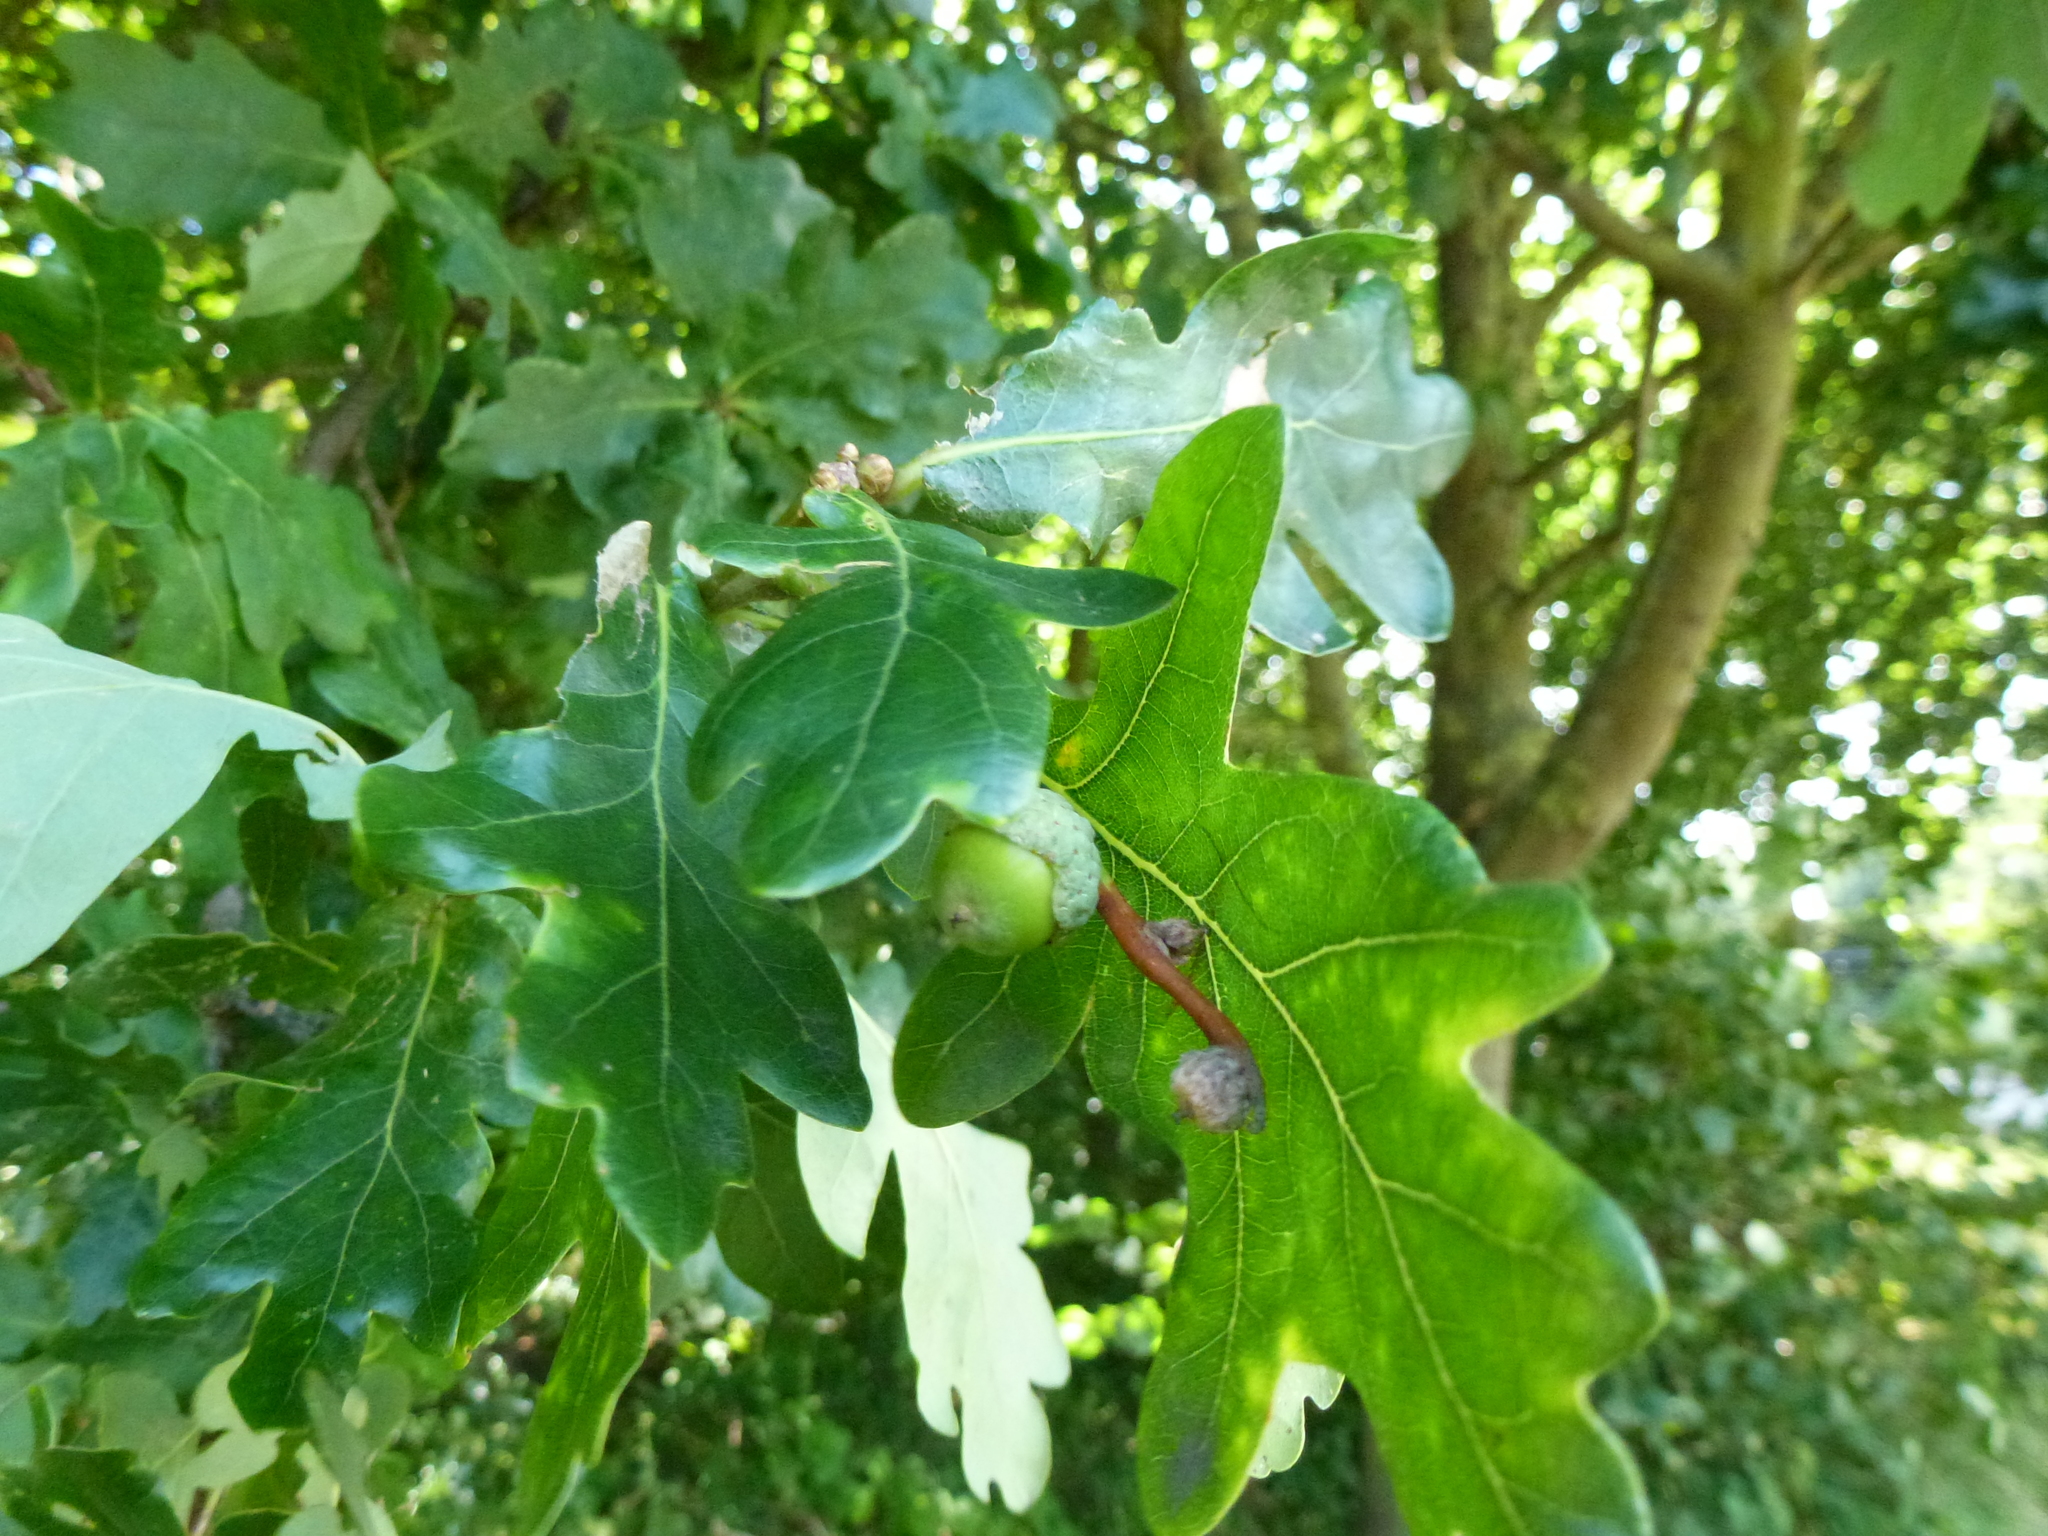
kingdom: Plantae
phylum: Tracheophyta
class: Magnoliopsida
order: Fagales
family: Fagaceae
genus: Quercus
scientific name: Quercus robur
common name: Pedunculate oak
